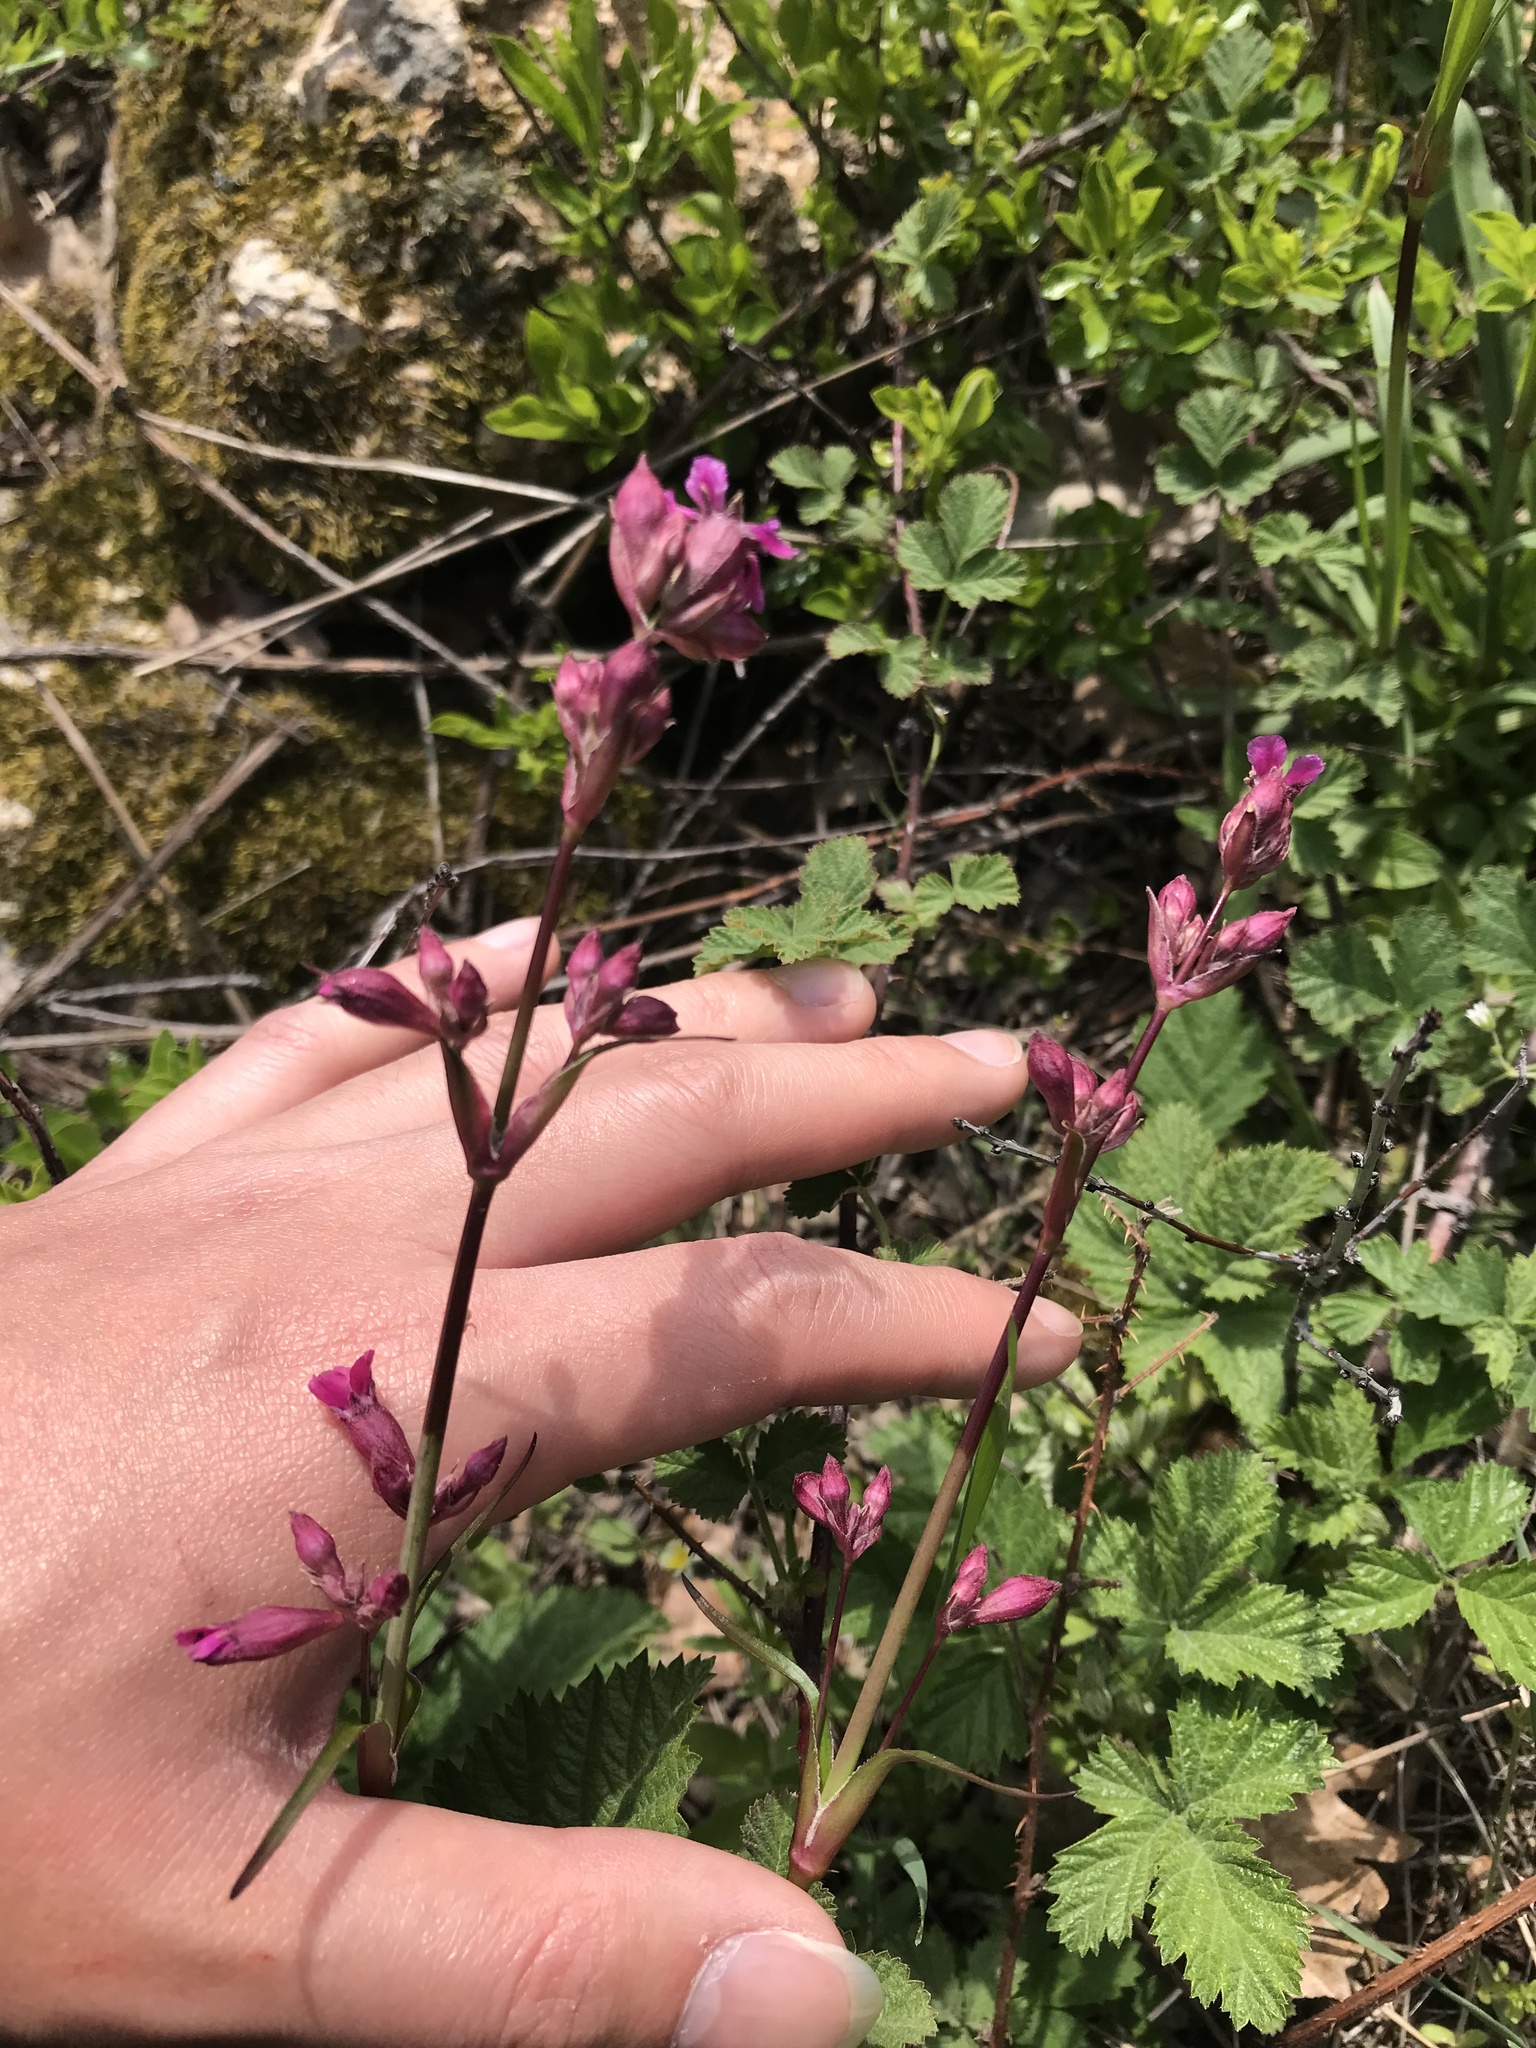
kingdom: Plantae
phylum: Tracheophyta
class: Magnoliopsida
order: Caryophyllales
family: Caryophyllaceae
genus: Viscaria
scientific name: Viscaria vulgaris
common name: Clammy campion
